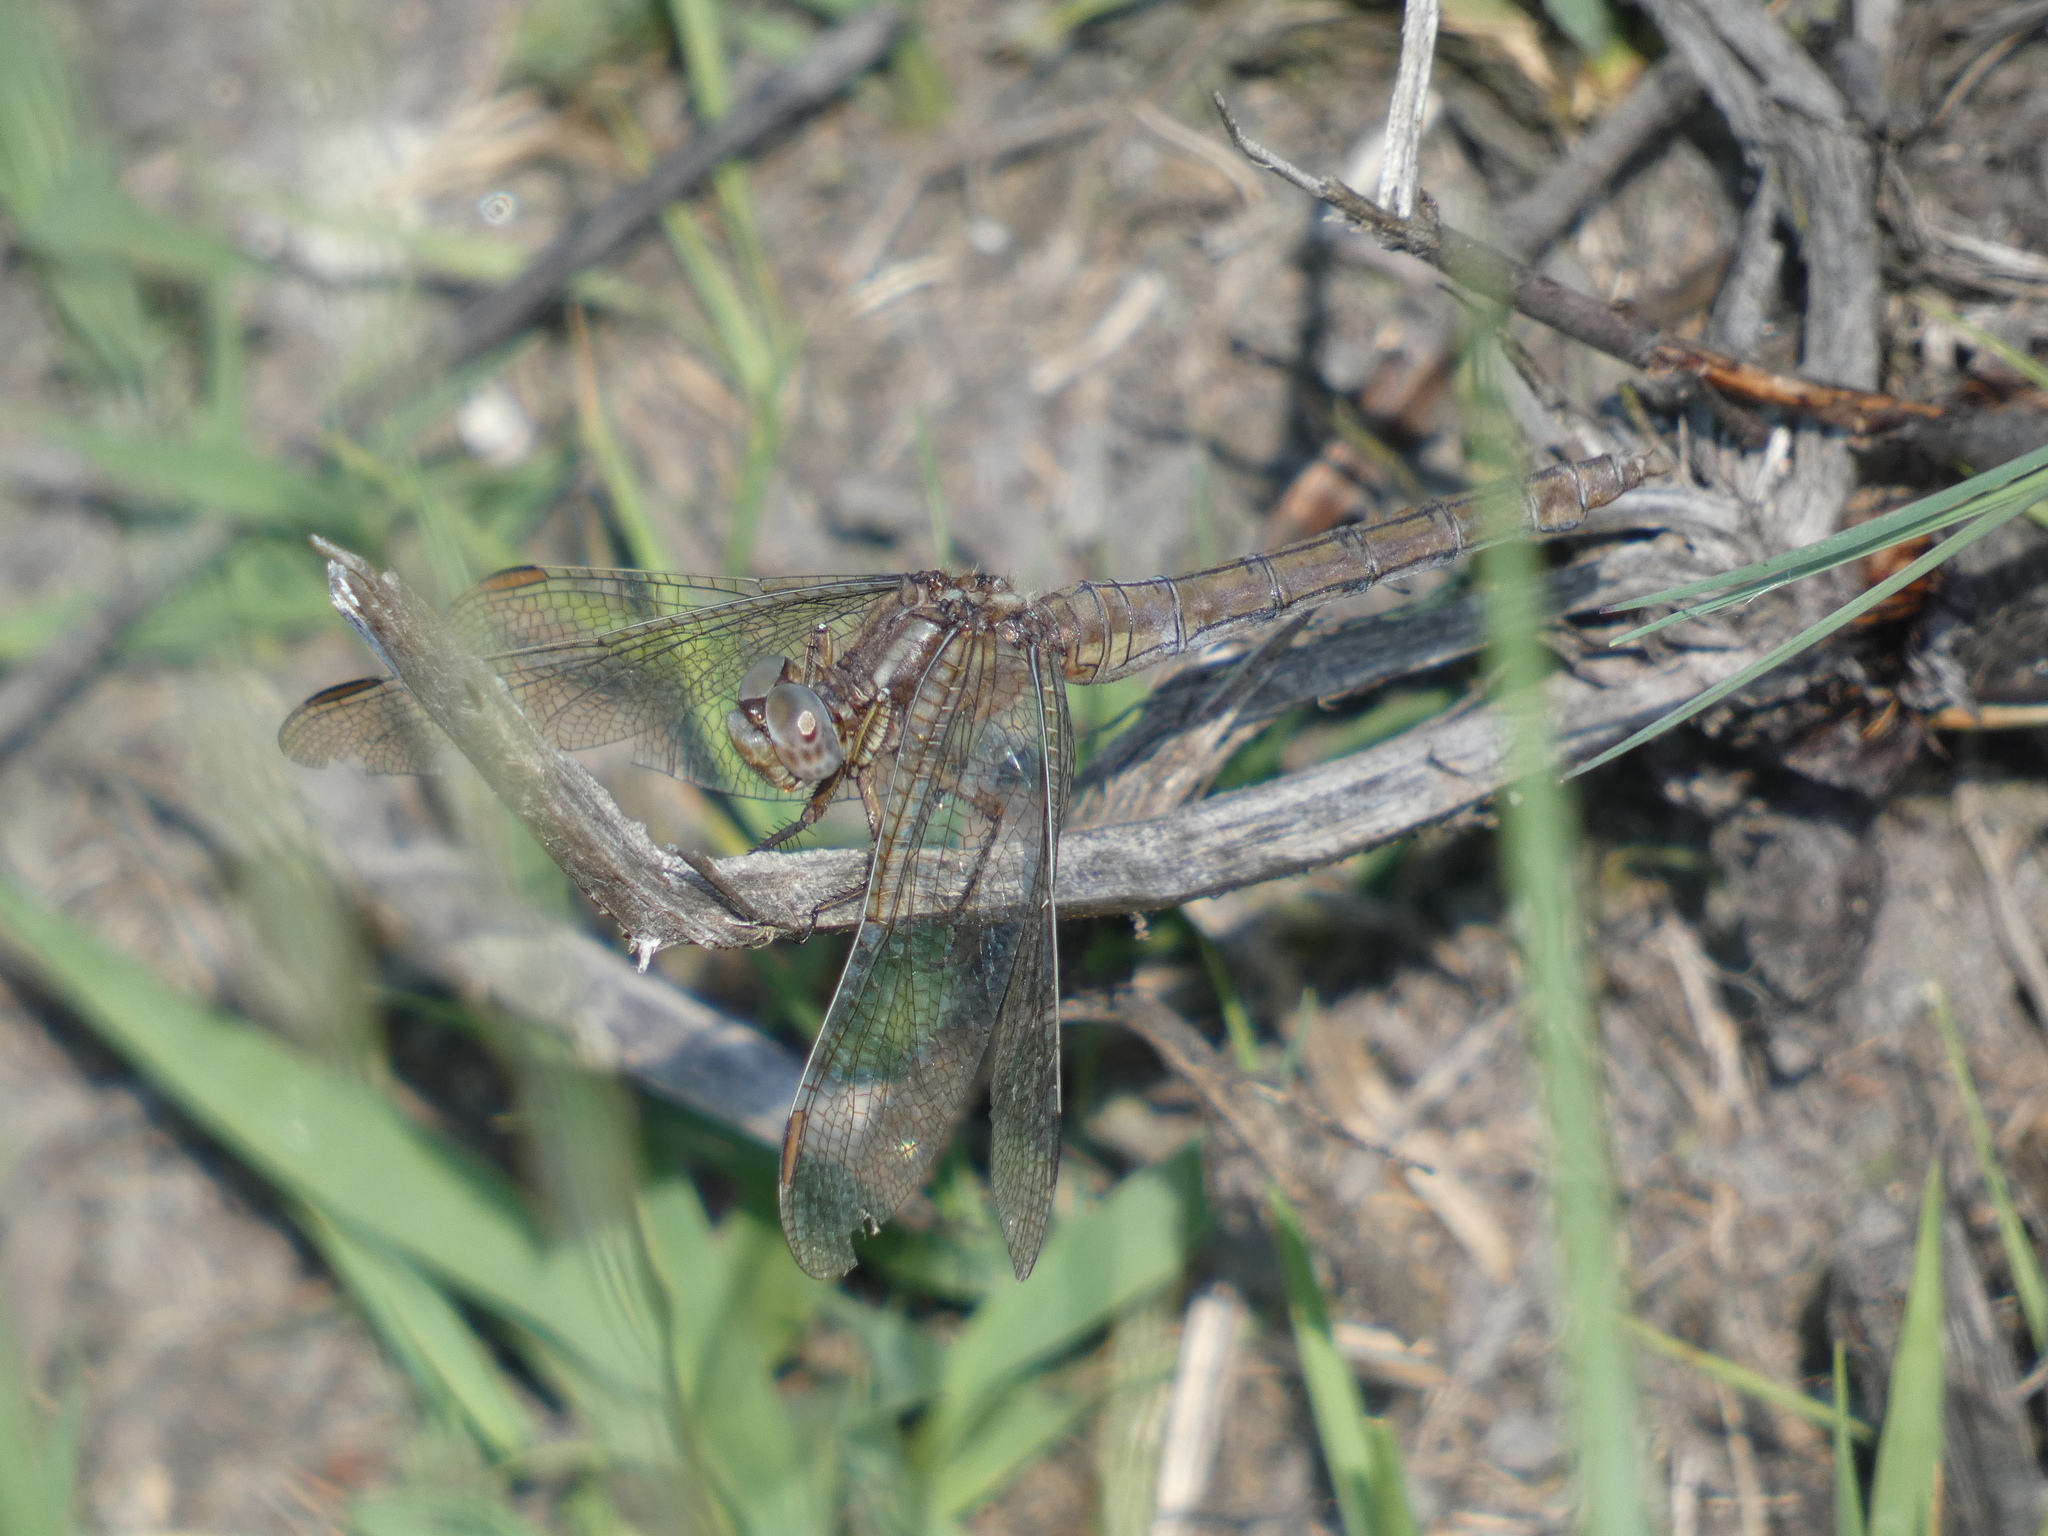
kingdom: Animalia
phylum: Arthropoda
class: Insecta
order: Odonata
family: Libellulidae
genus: Orthetrum
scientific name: Orthetrum coerulescens
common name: Keeled skimmer
